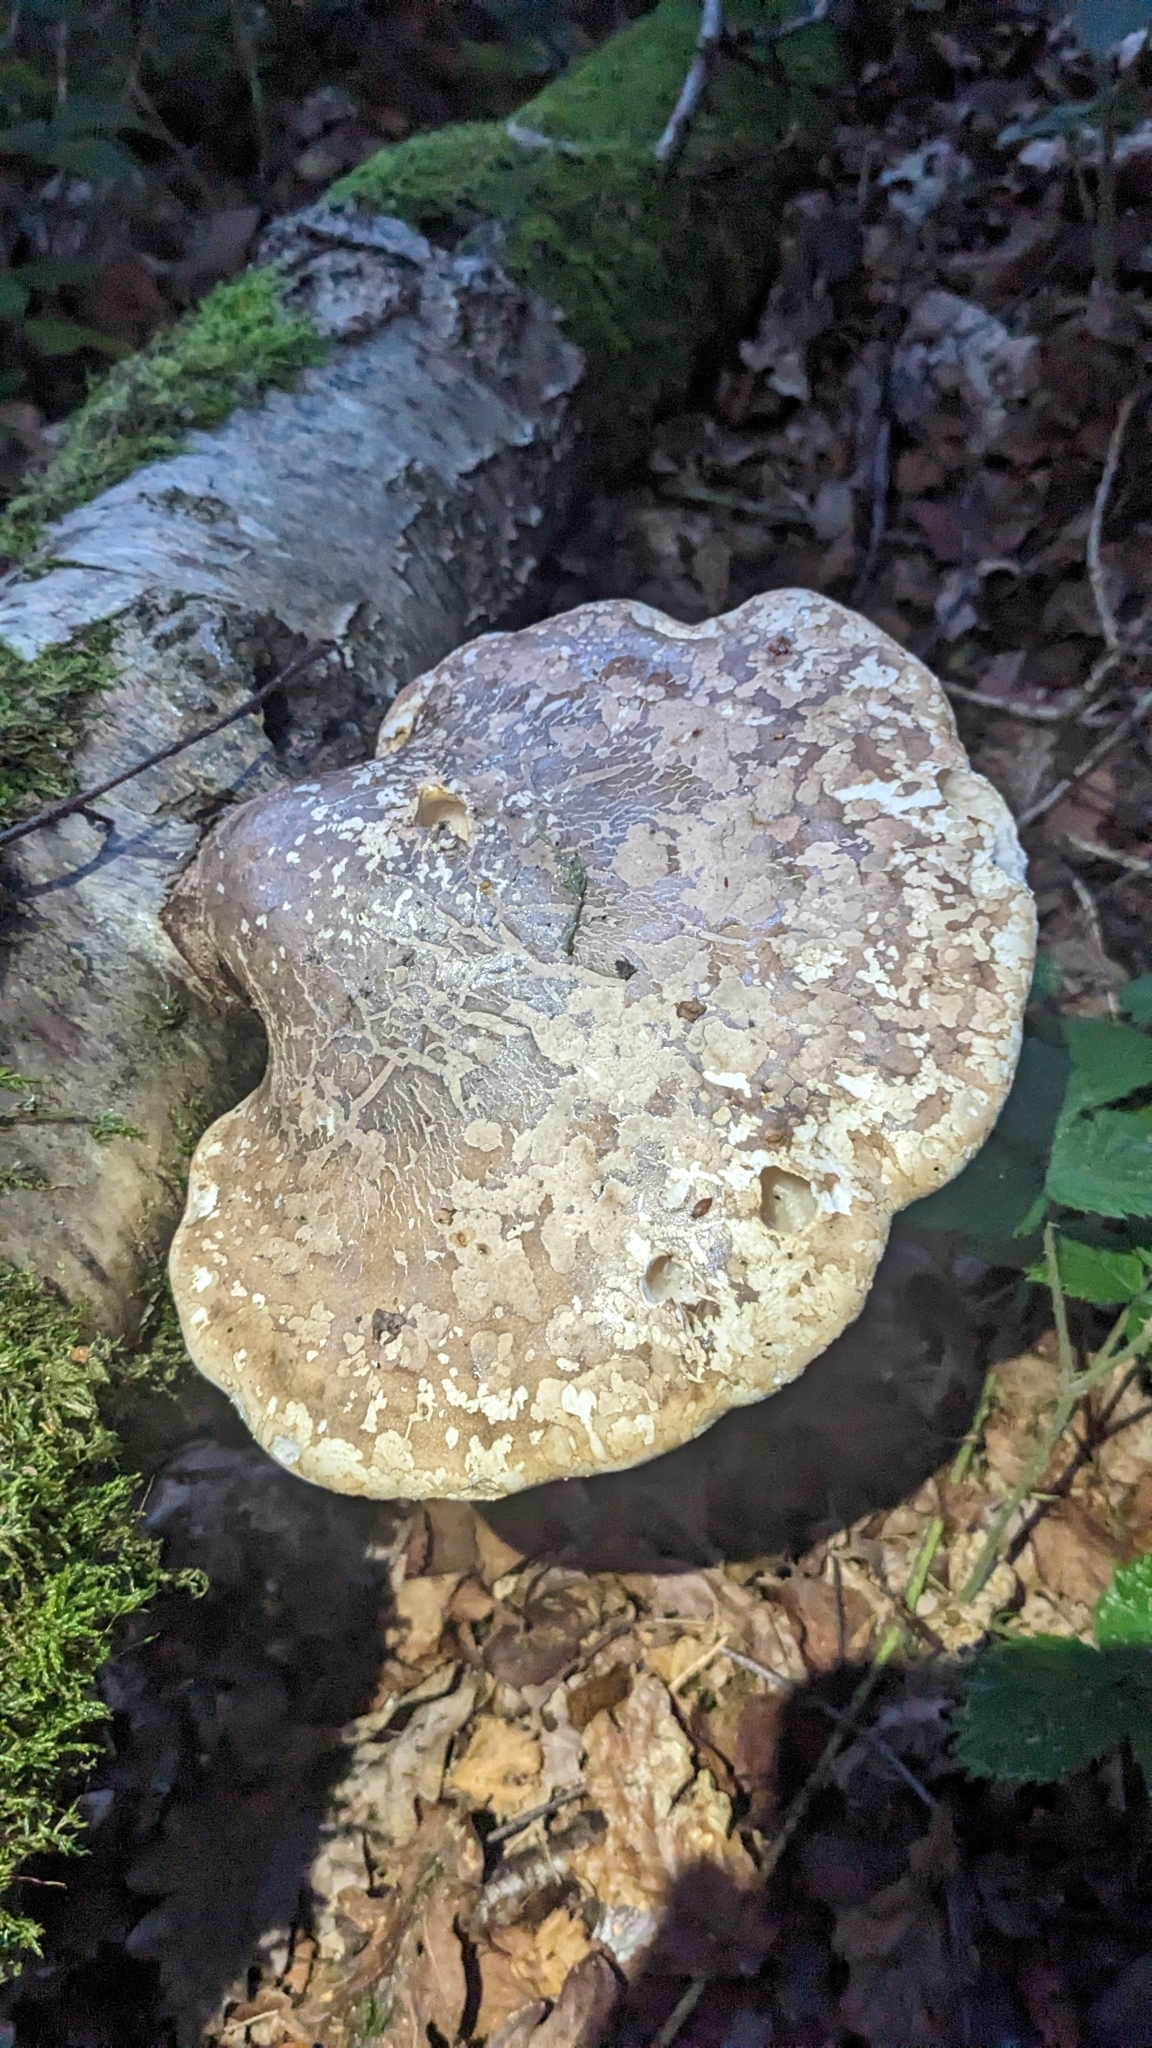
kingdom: Fungi
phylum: Basidiomycota
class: Agaricomycetes
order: Polyporales
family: Fomitopsidaceae
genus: Fomitopsis
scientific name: Fomitopsis betulina
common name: Birch polypore
